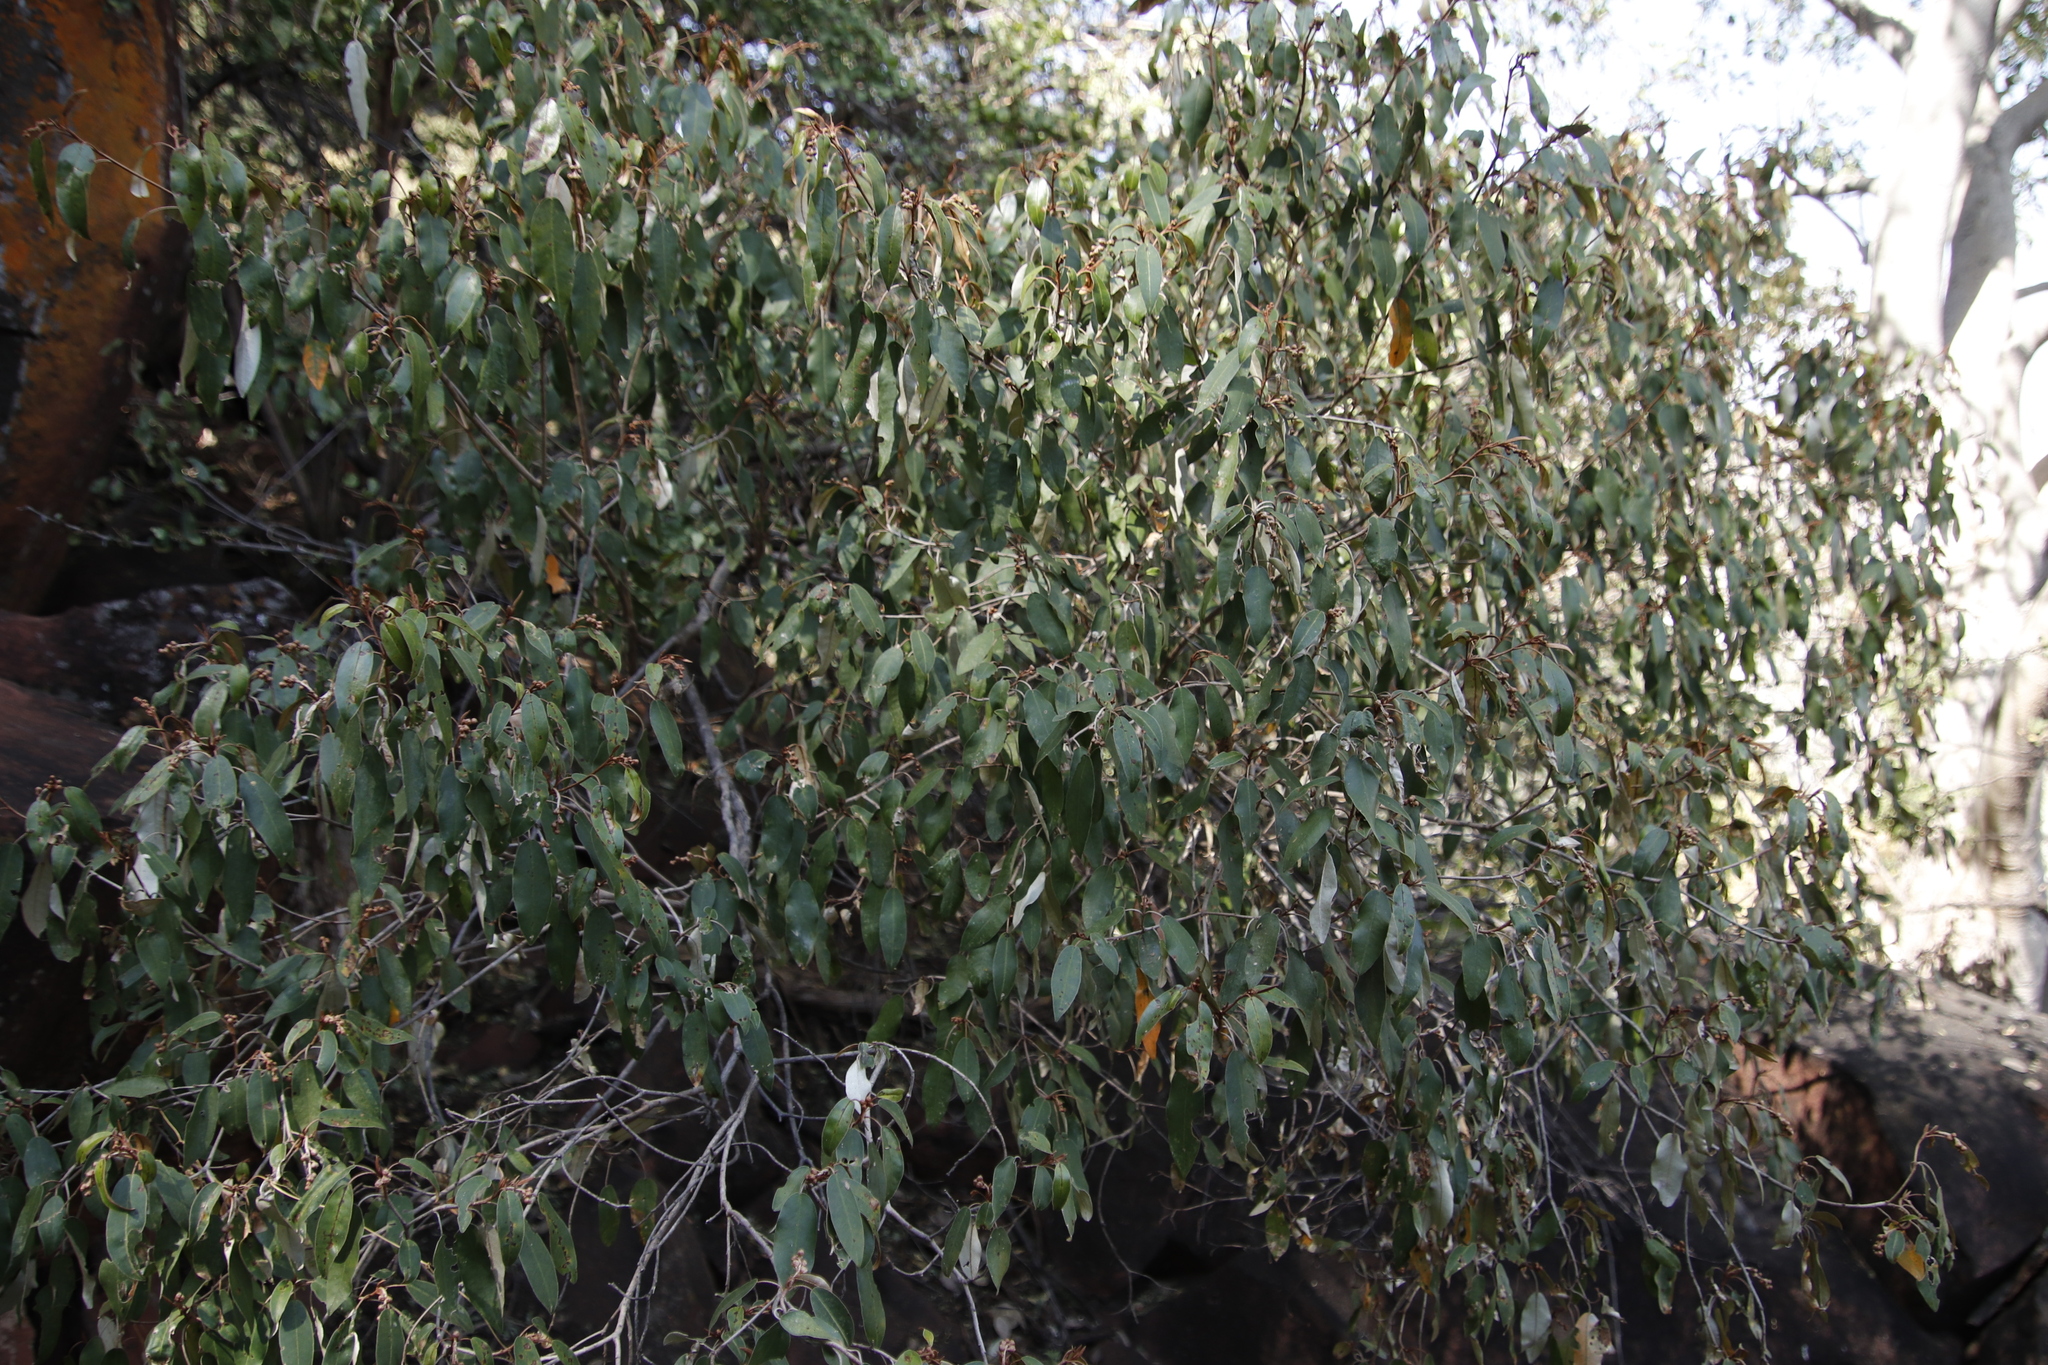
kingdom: Plantae
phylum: Tracheophyta
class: Magnoliopsida
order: Malpighiales
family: Euphorbiaceae
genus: Croton
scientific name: Croton gratissimus
